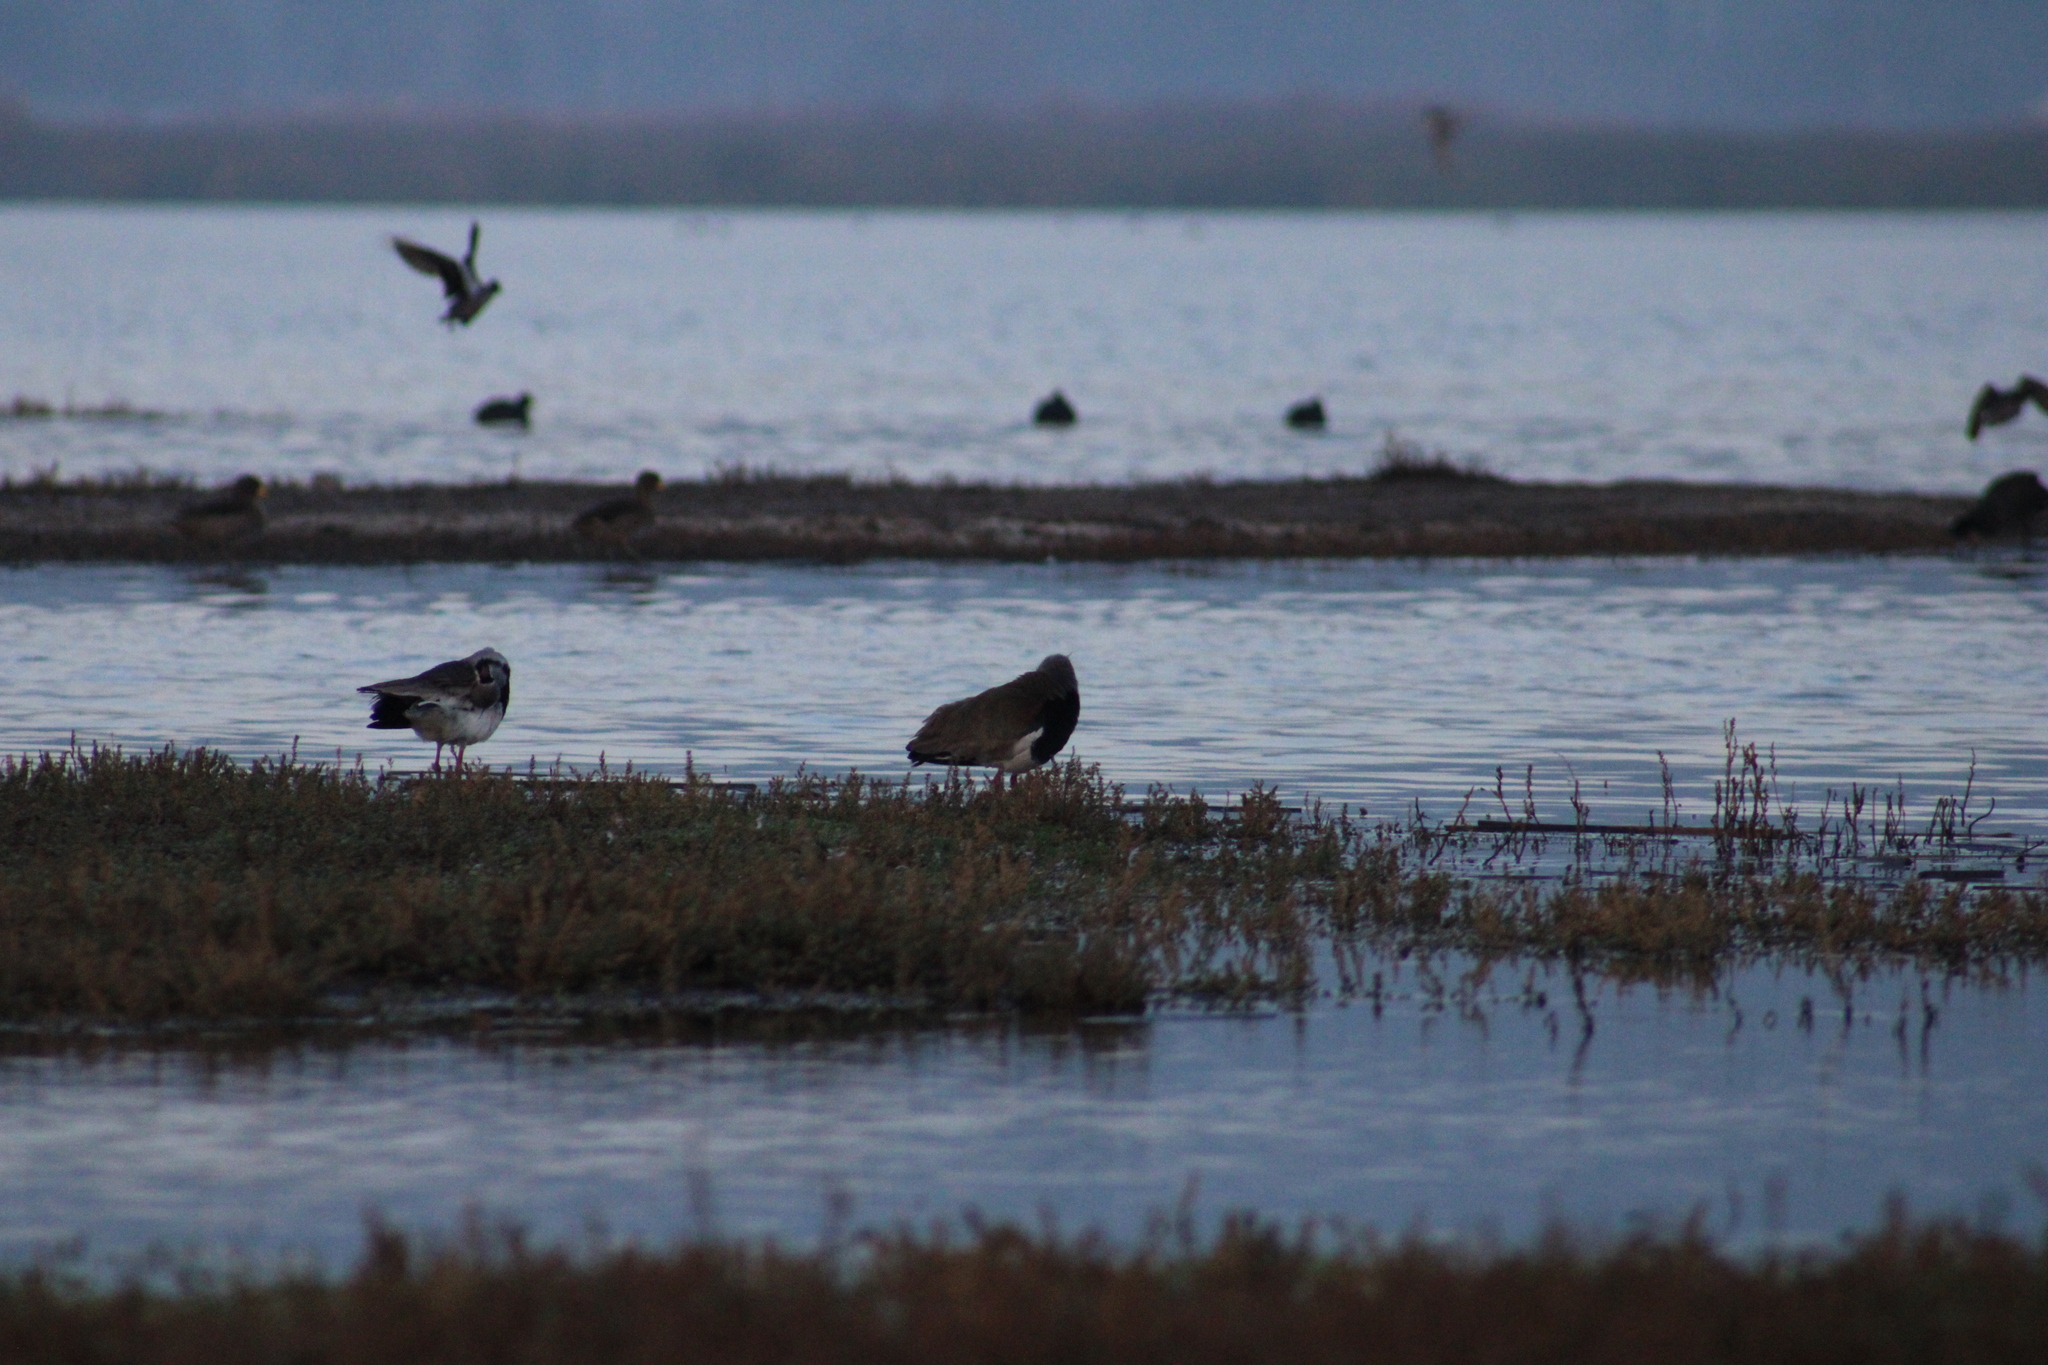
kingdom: Animalia
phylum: Chordata
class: Aves
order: Charadriiformes
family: Charadriidae
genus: Vanellus
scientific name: Vanellus chilensis
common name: Southern lapwing
